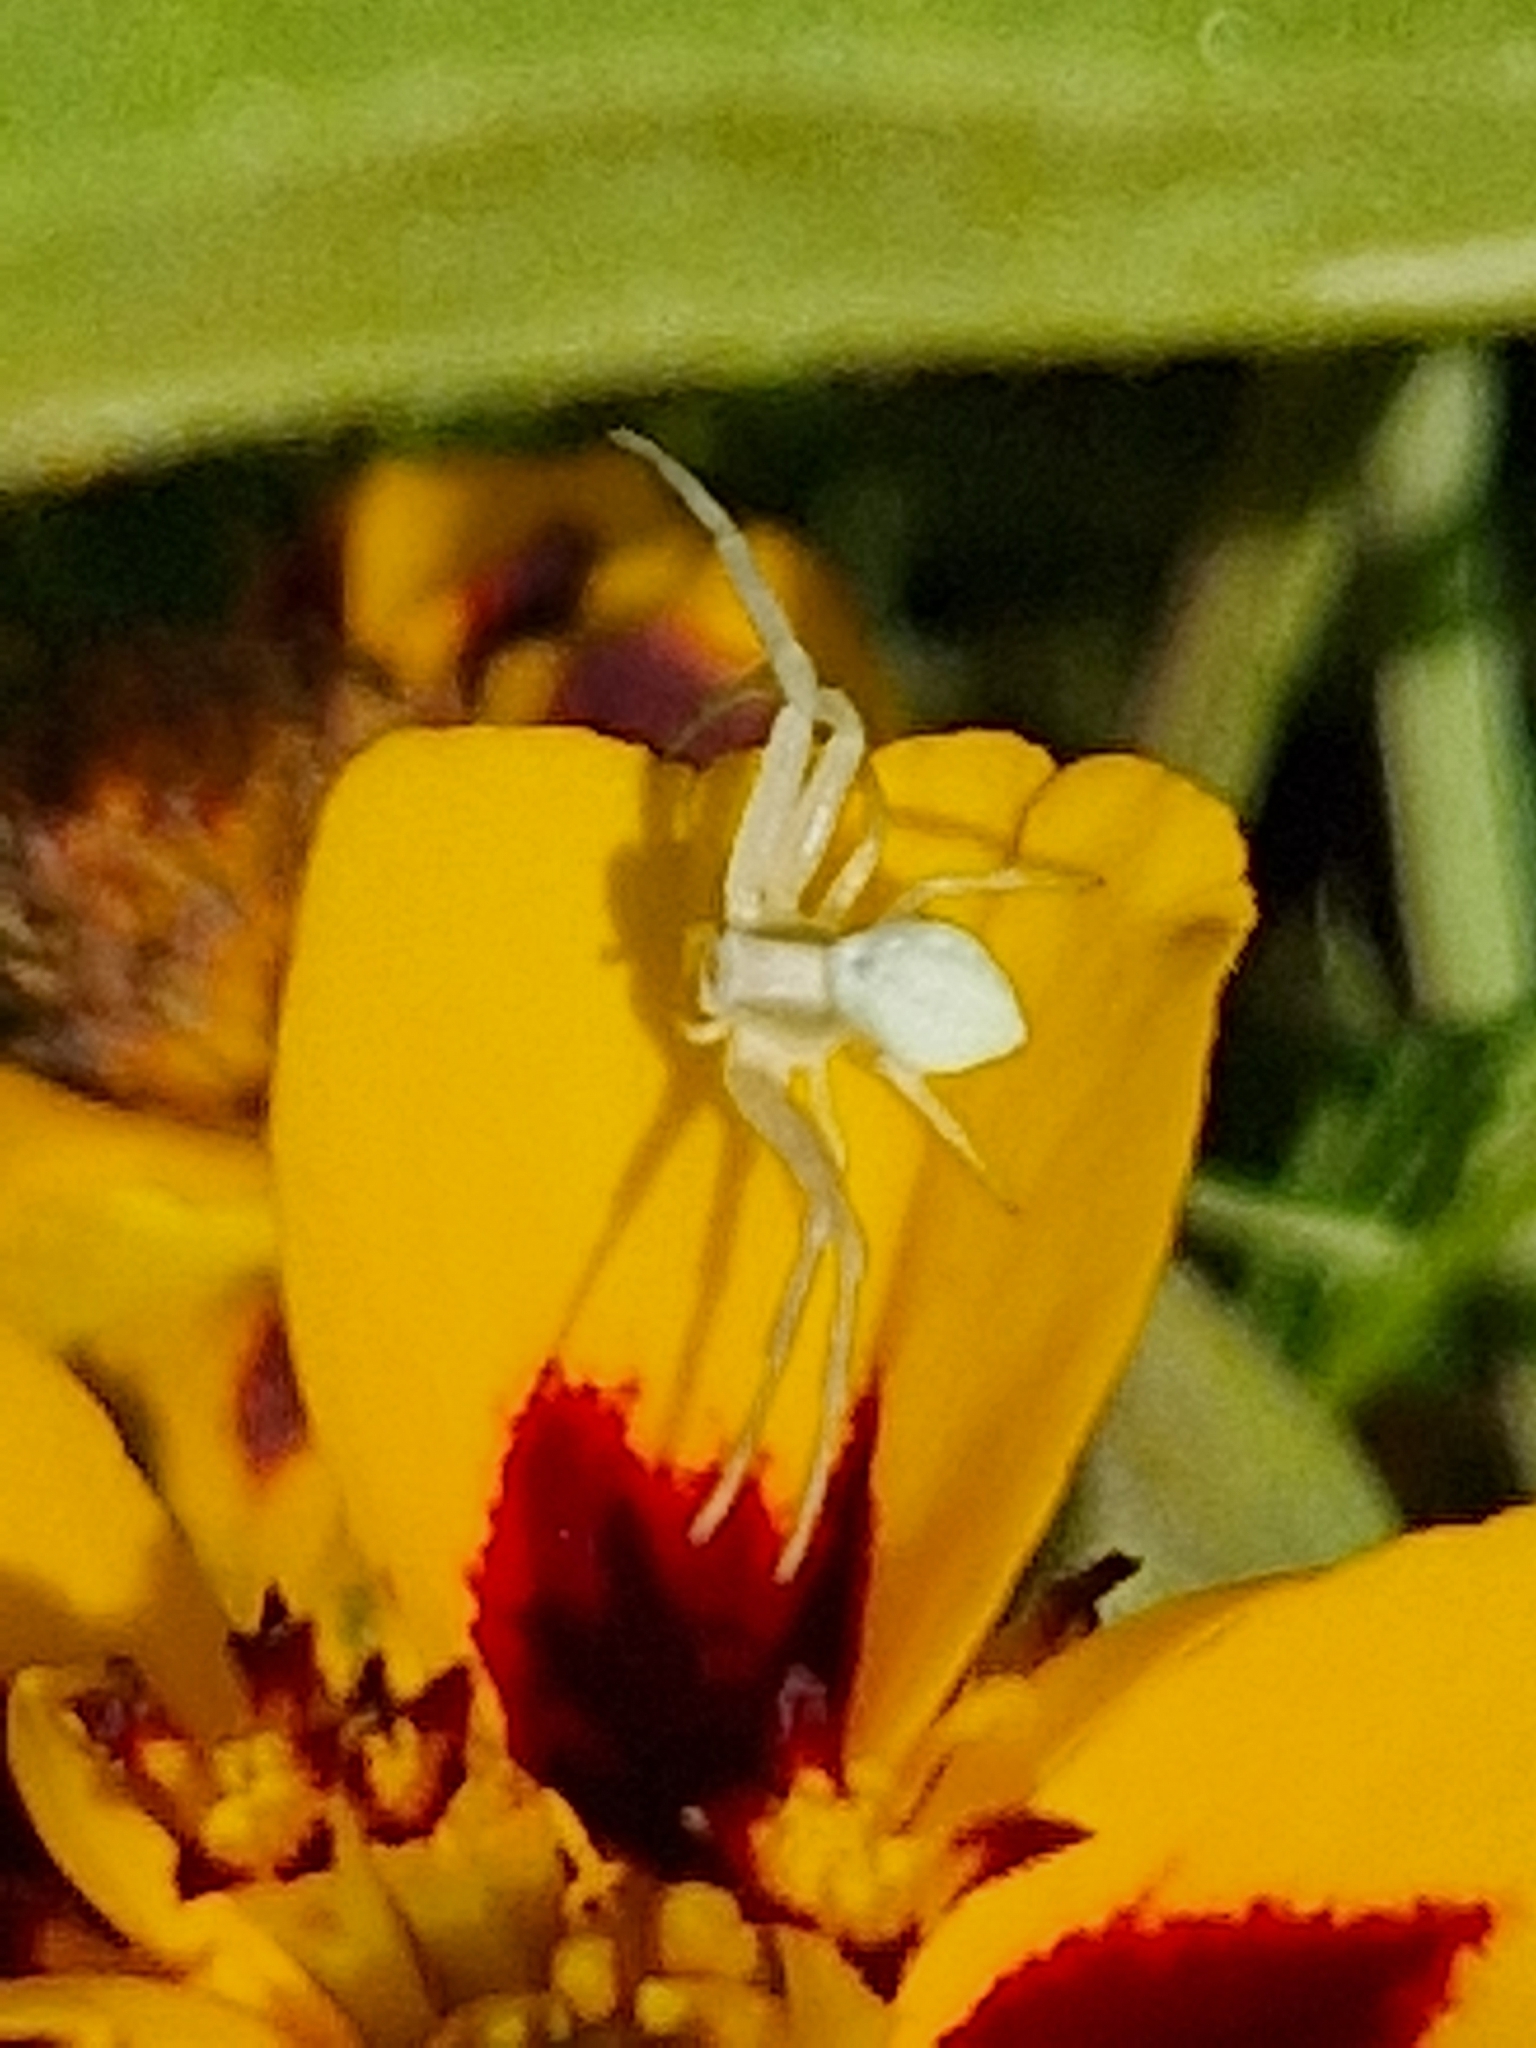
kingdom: Animalia
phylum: Arthropoda
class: Arachnida
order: Araneae
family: Thomisidae
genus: Misumena
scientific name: Misumena vatia
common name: Goldenrod crab spider
